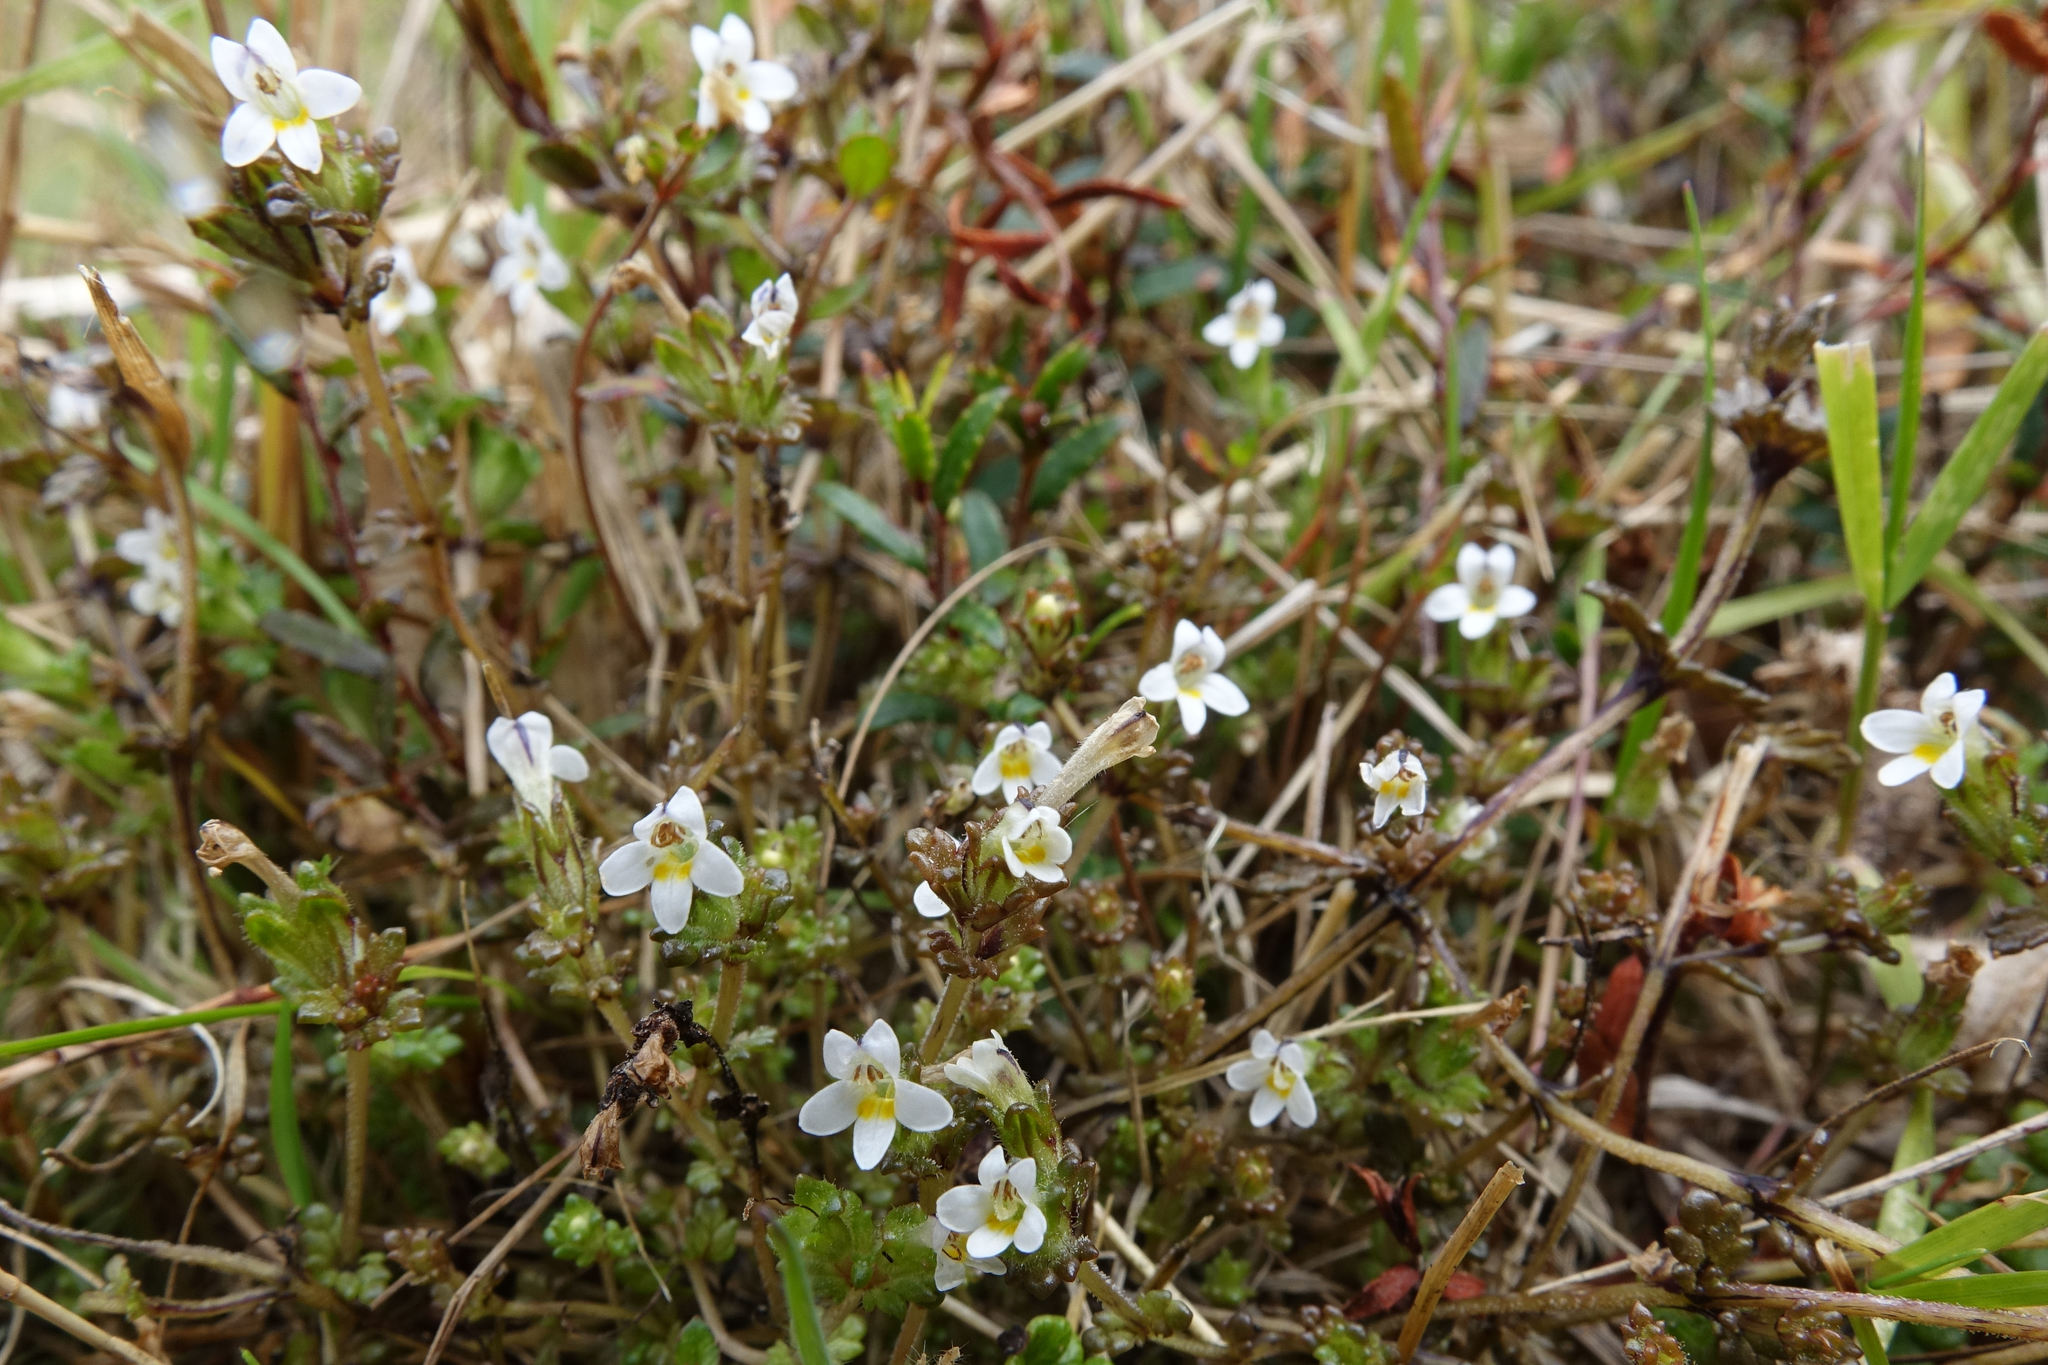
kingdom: Plantae
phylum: Tracheophyta
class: Magnoliopsida
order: Lamiales
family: Orobanchaceae
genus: Euphrasia
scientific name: Euphrasia zelandica
